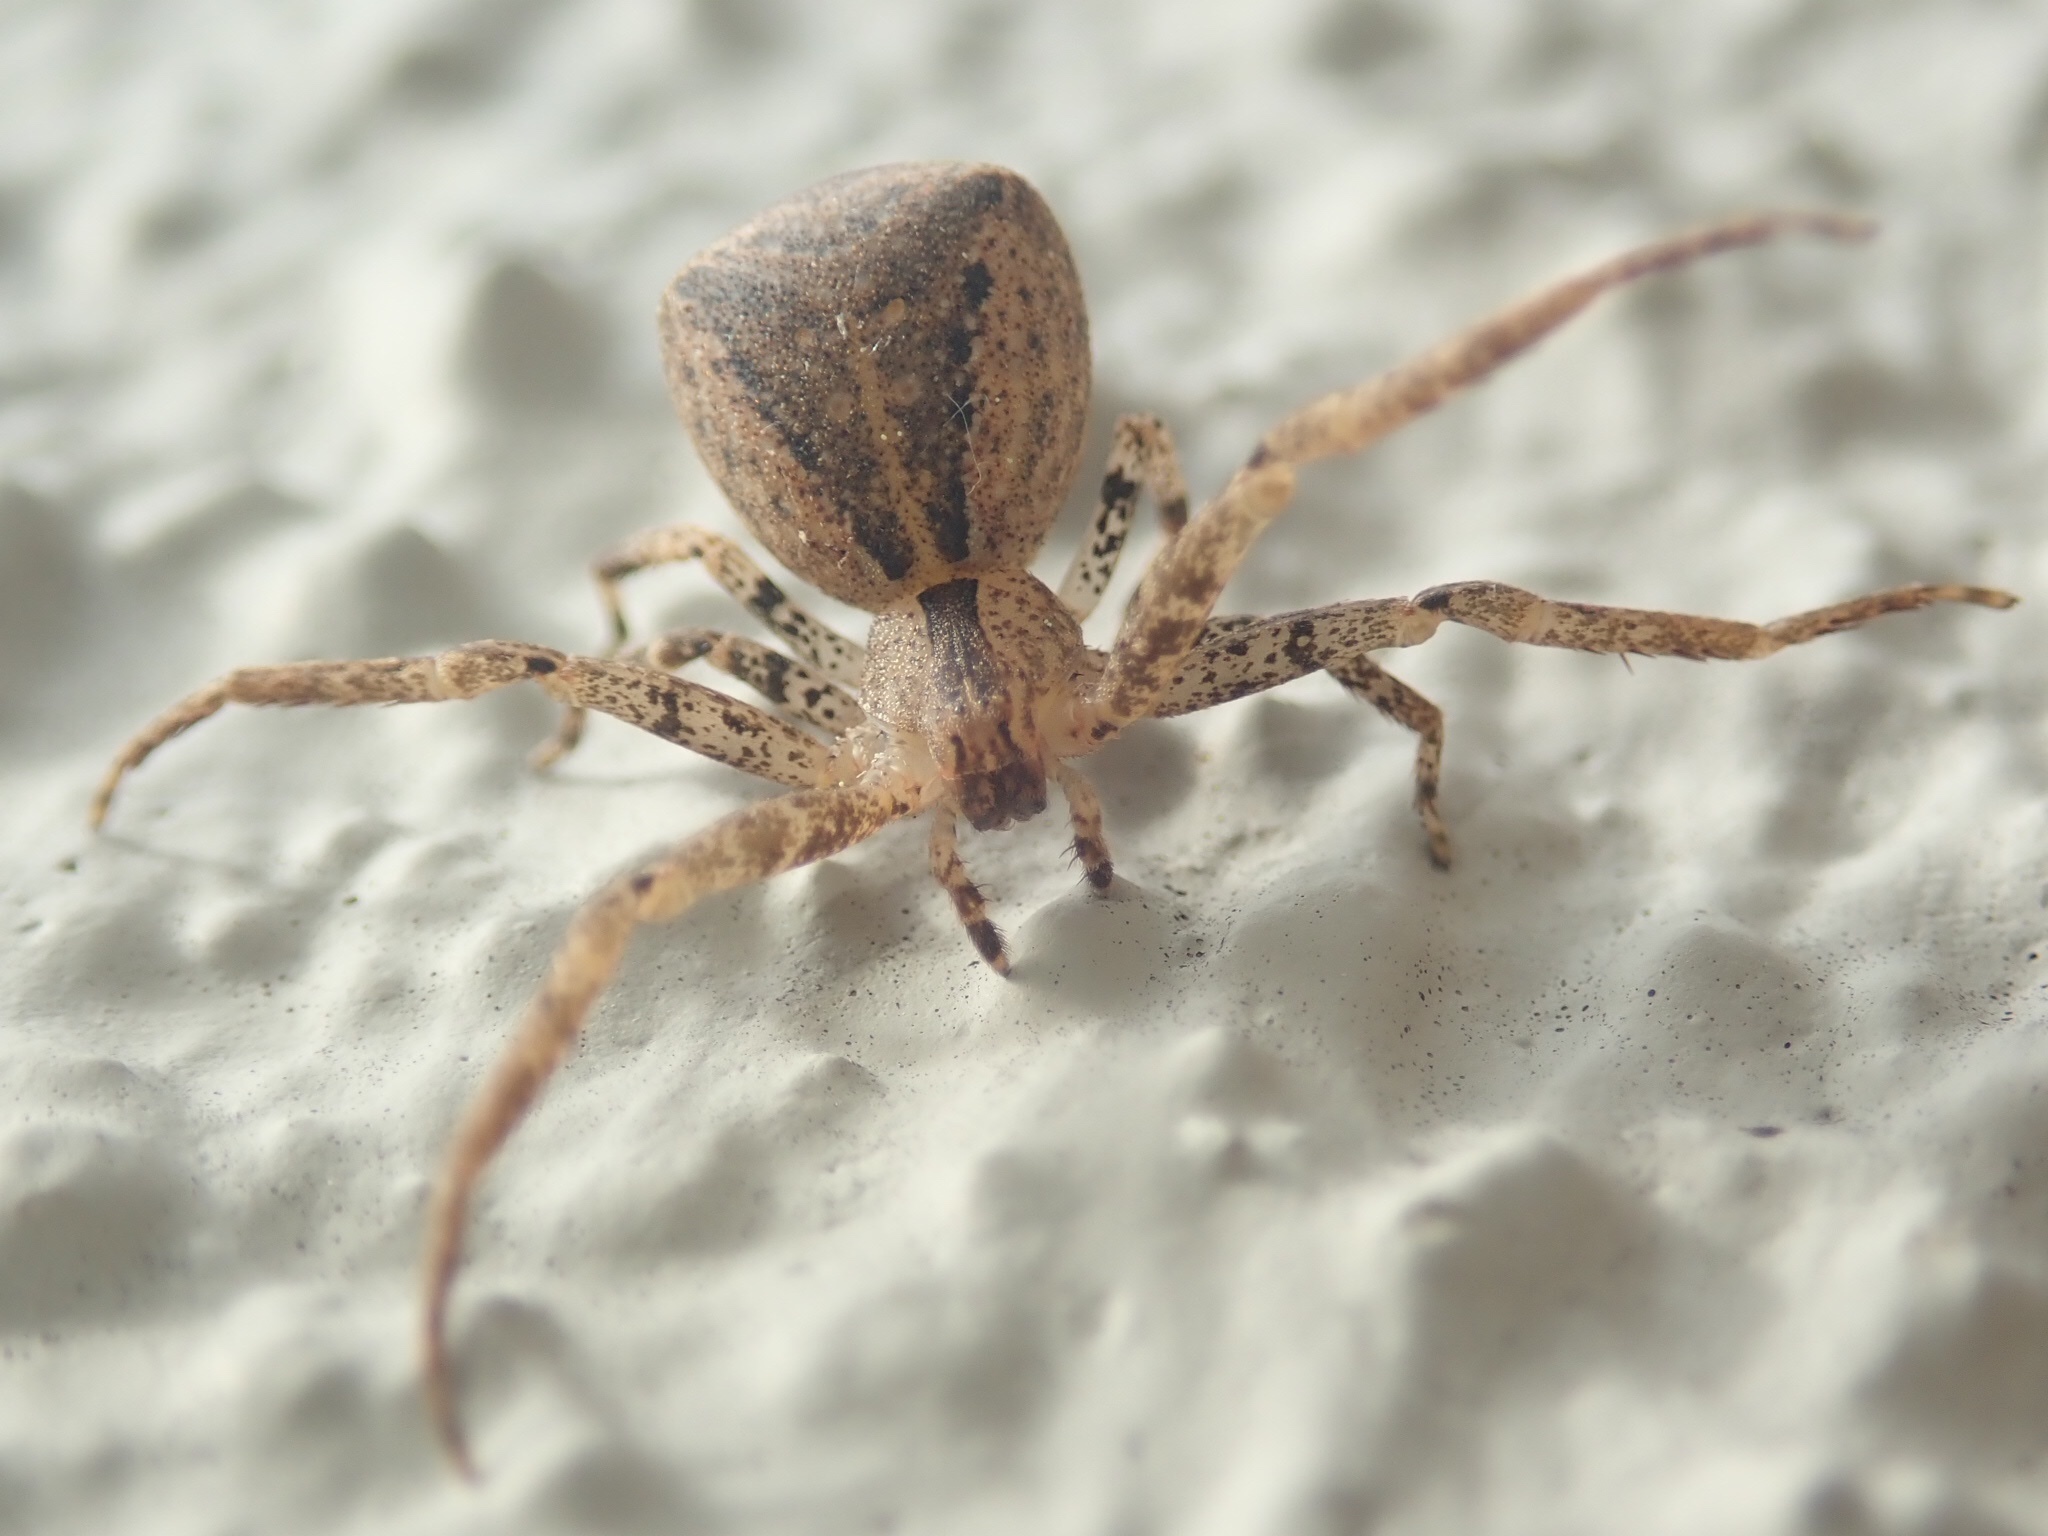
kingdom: Animalia
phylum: Arthropoda
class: Arachnida
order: Araneae
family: Thomisidae
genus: Sidymella
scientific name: Sidymella trapezia
